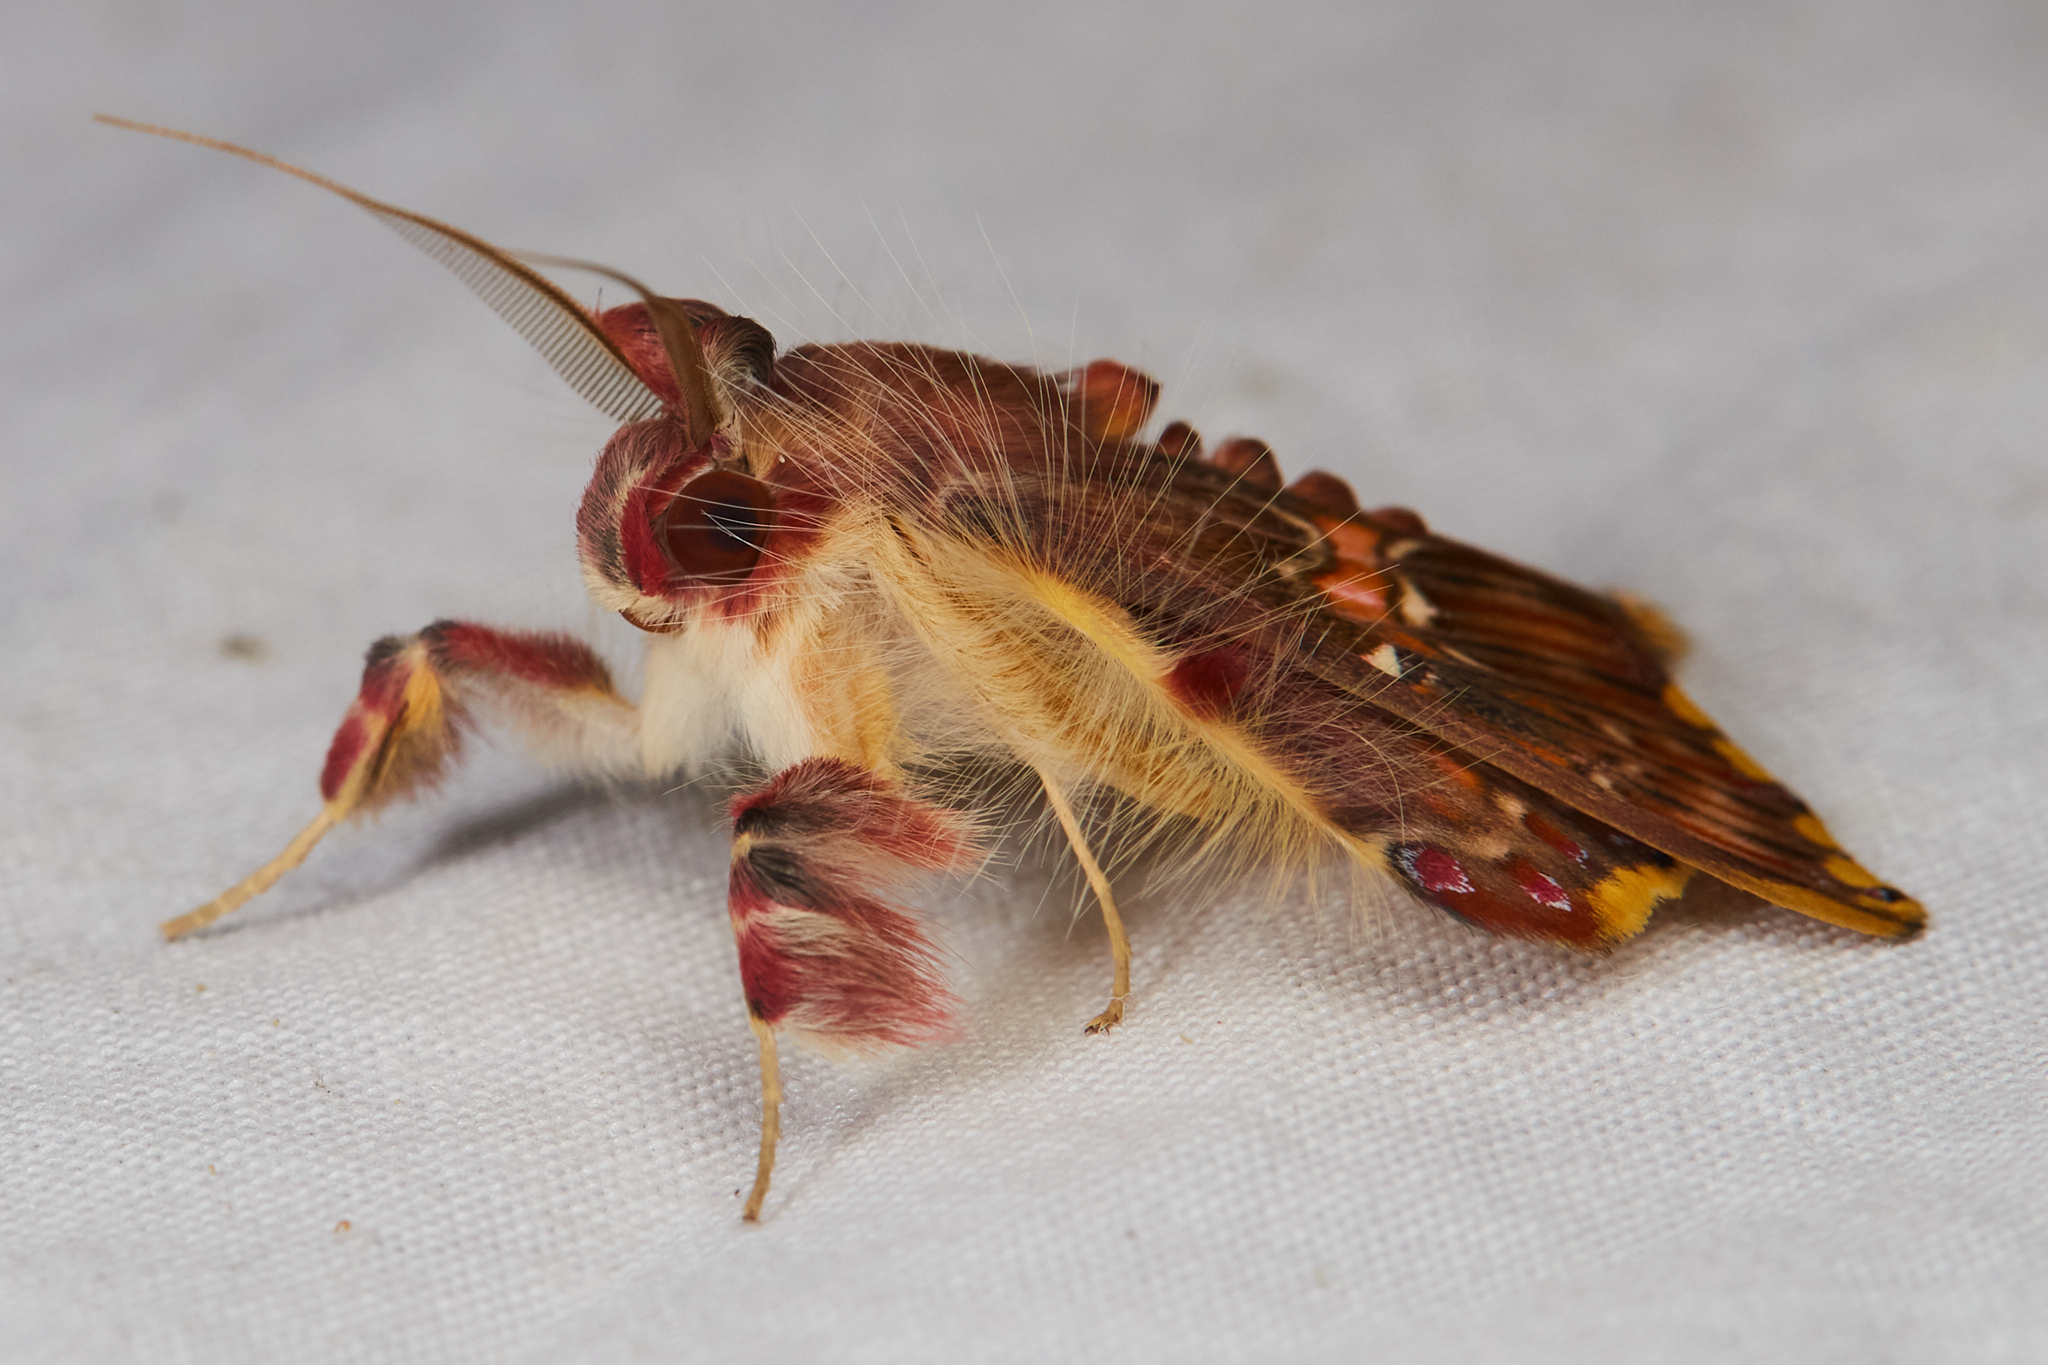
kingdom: Animalia
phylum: Arthropoda
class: Insecta
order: Lepidoptera
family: Erebidae
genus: Sosxetra
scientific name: Sosxetra grata
